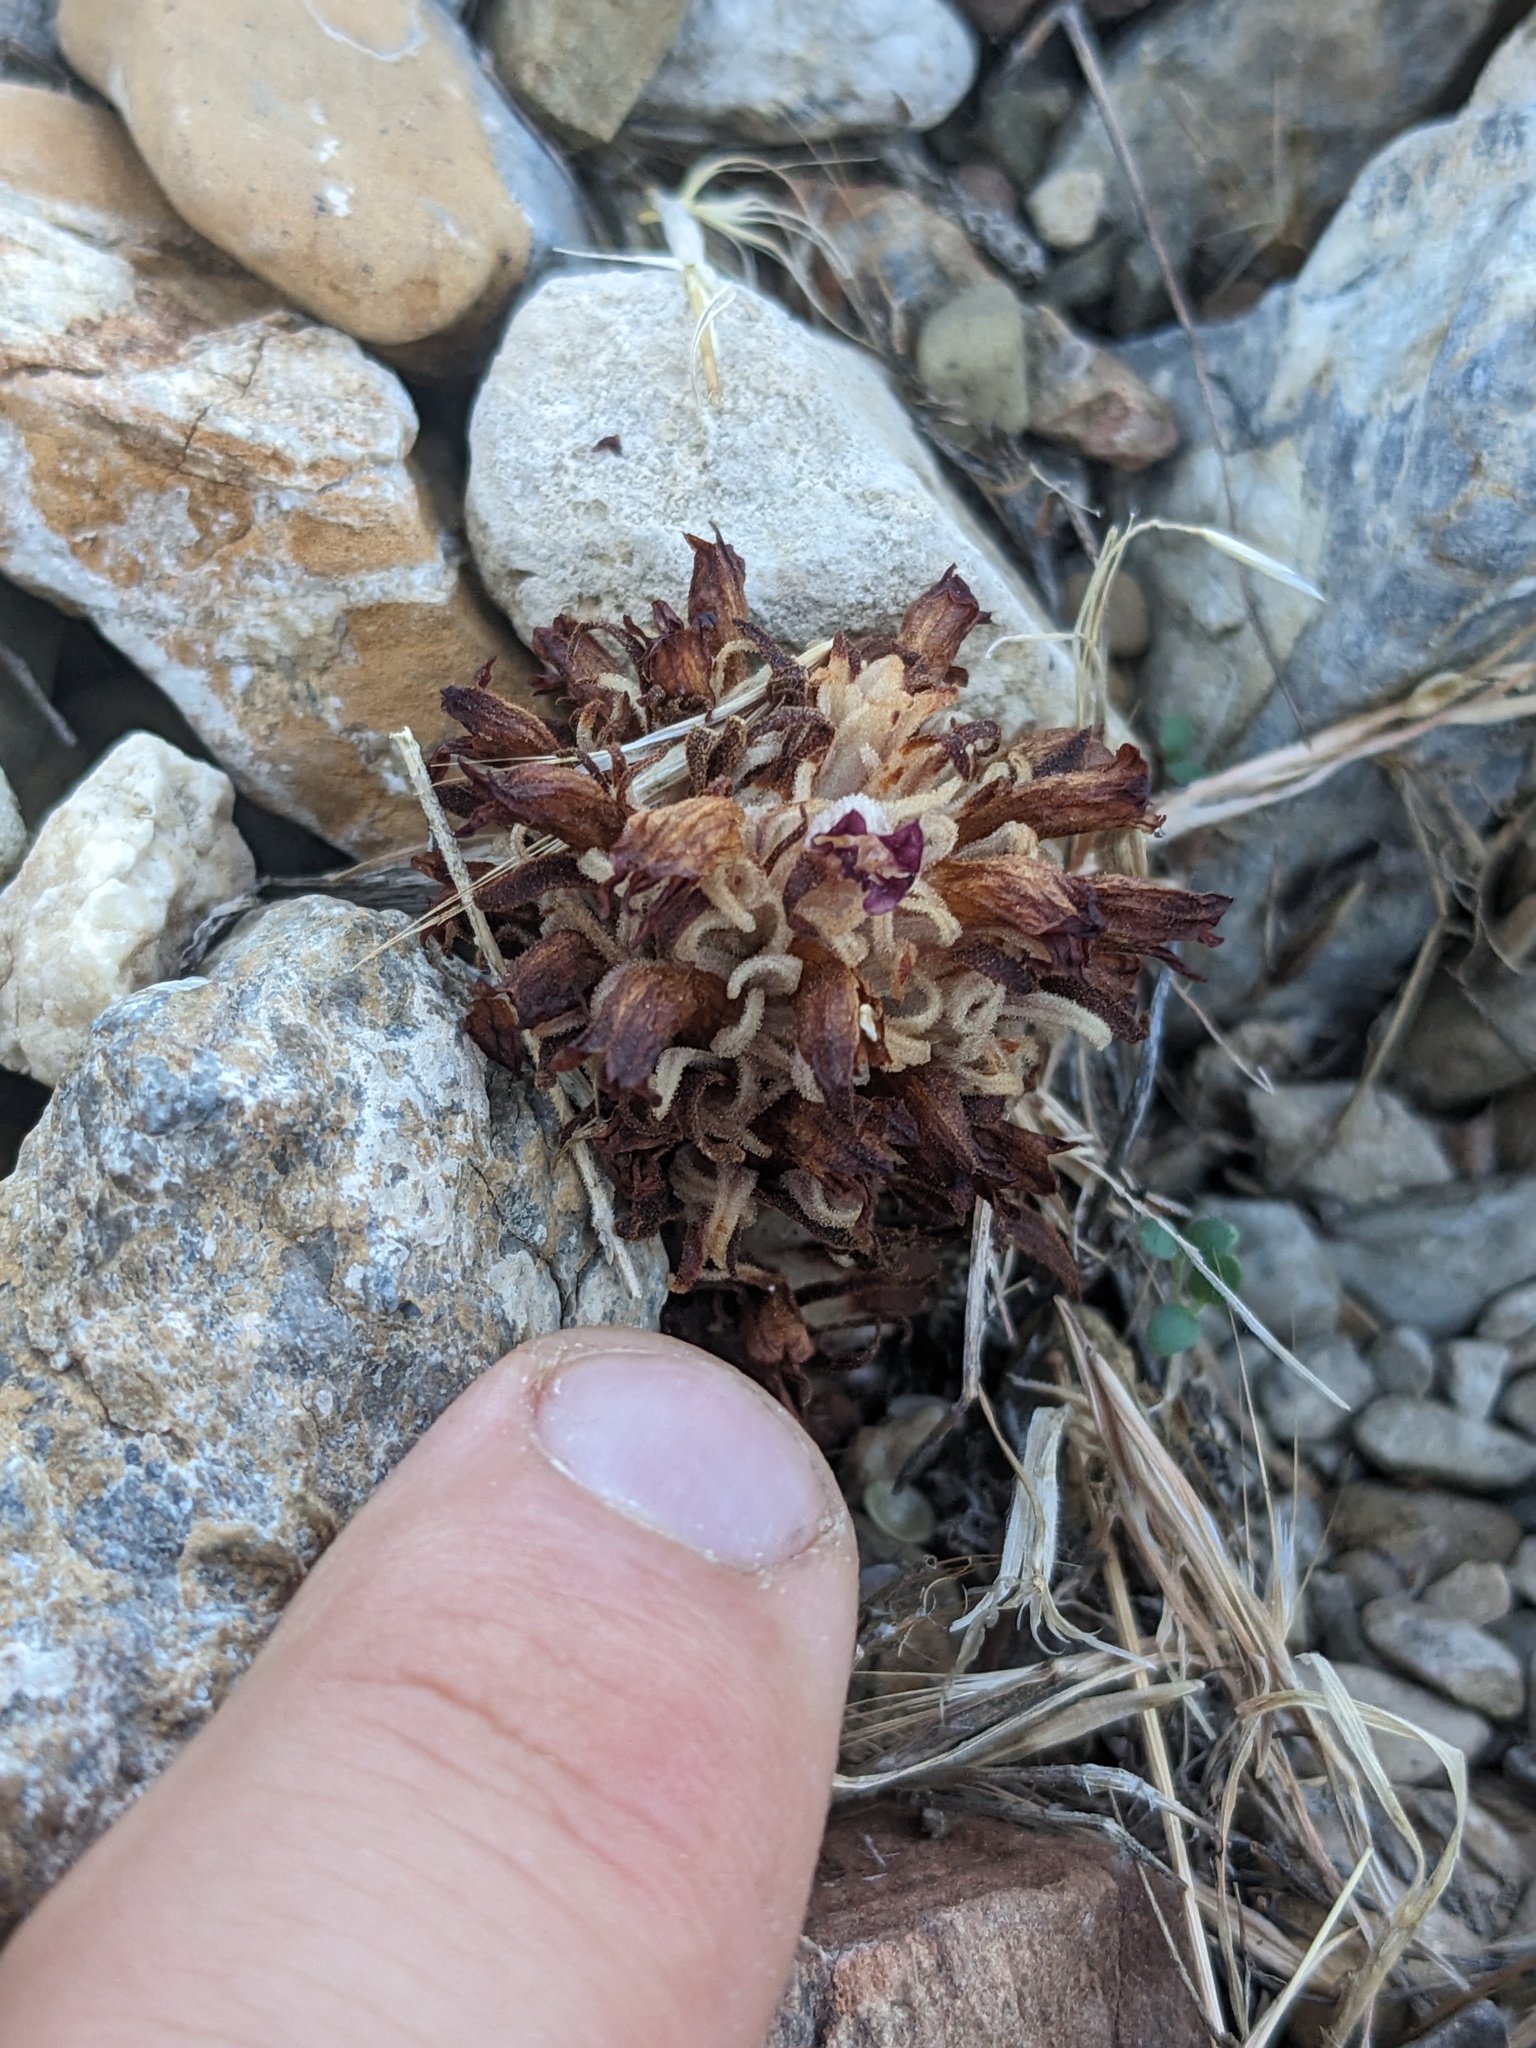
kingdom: Plantae
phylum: Tracheophyta
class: Magnoliopsida
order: Lamiales
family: Orobanchaceae
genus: Aphyllon
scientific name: Aphyllon parishii
